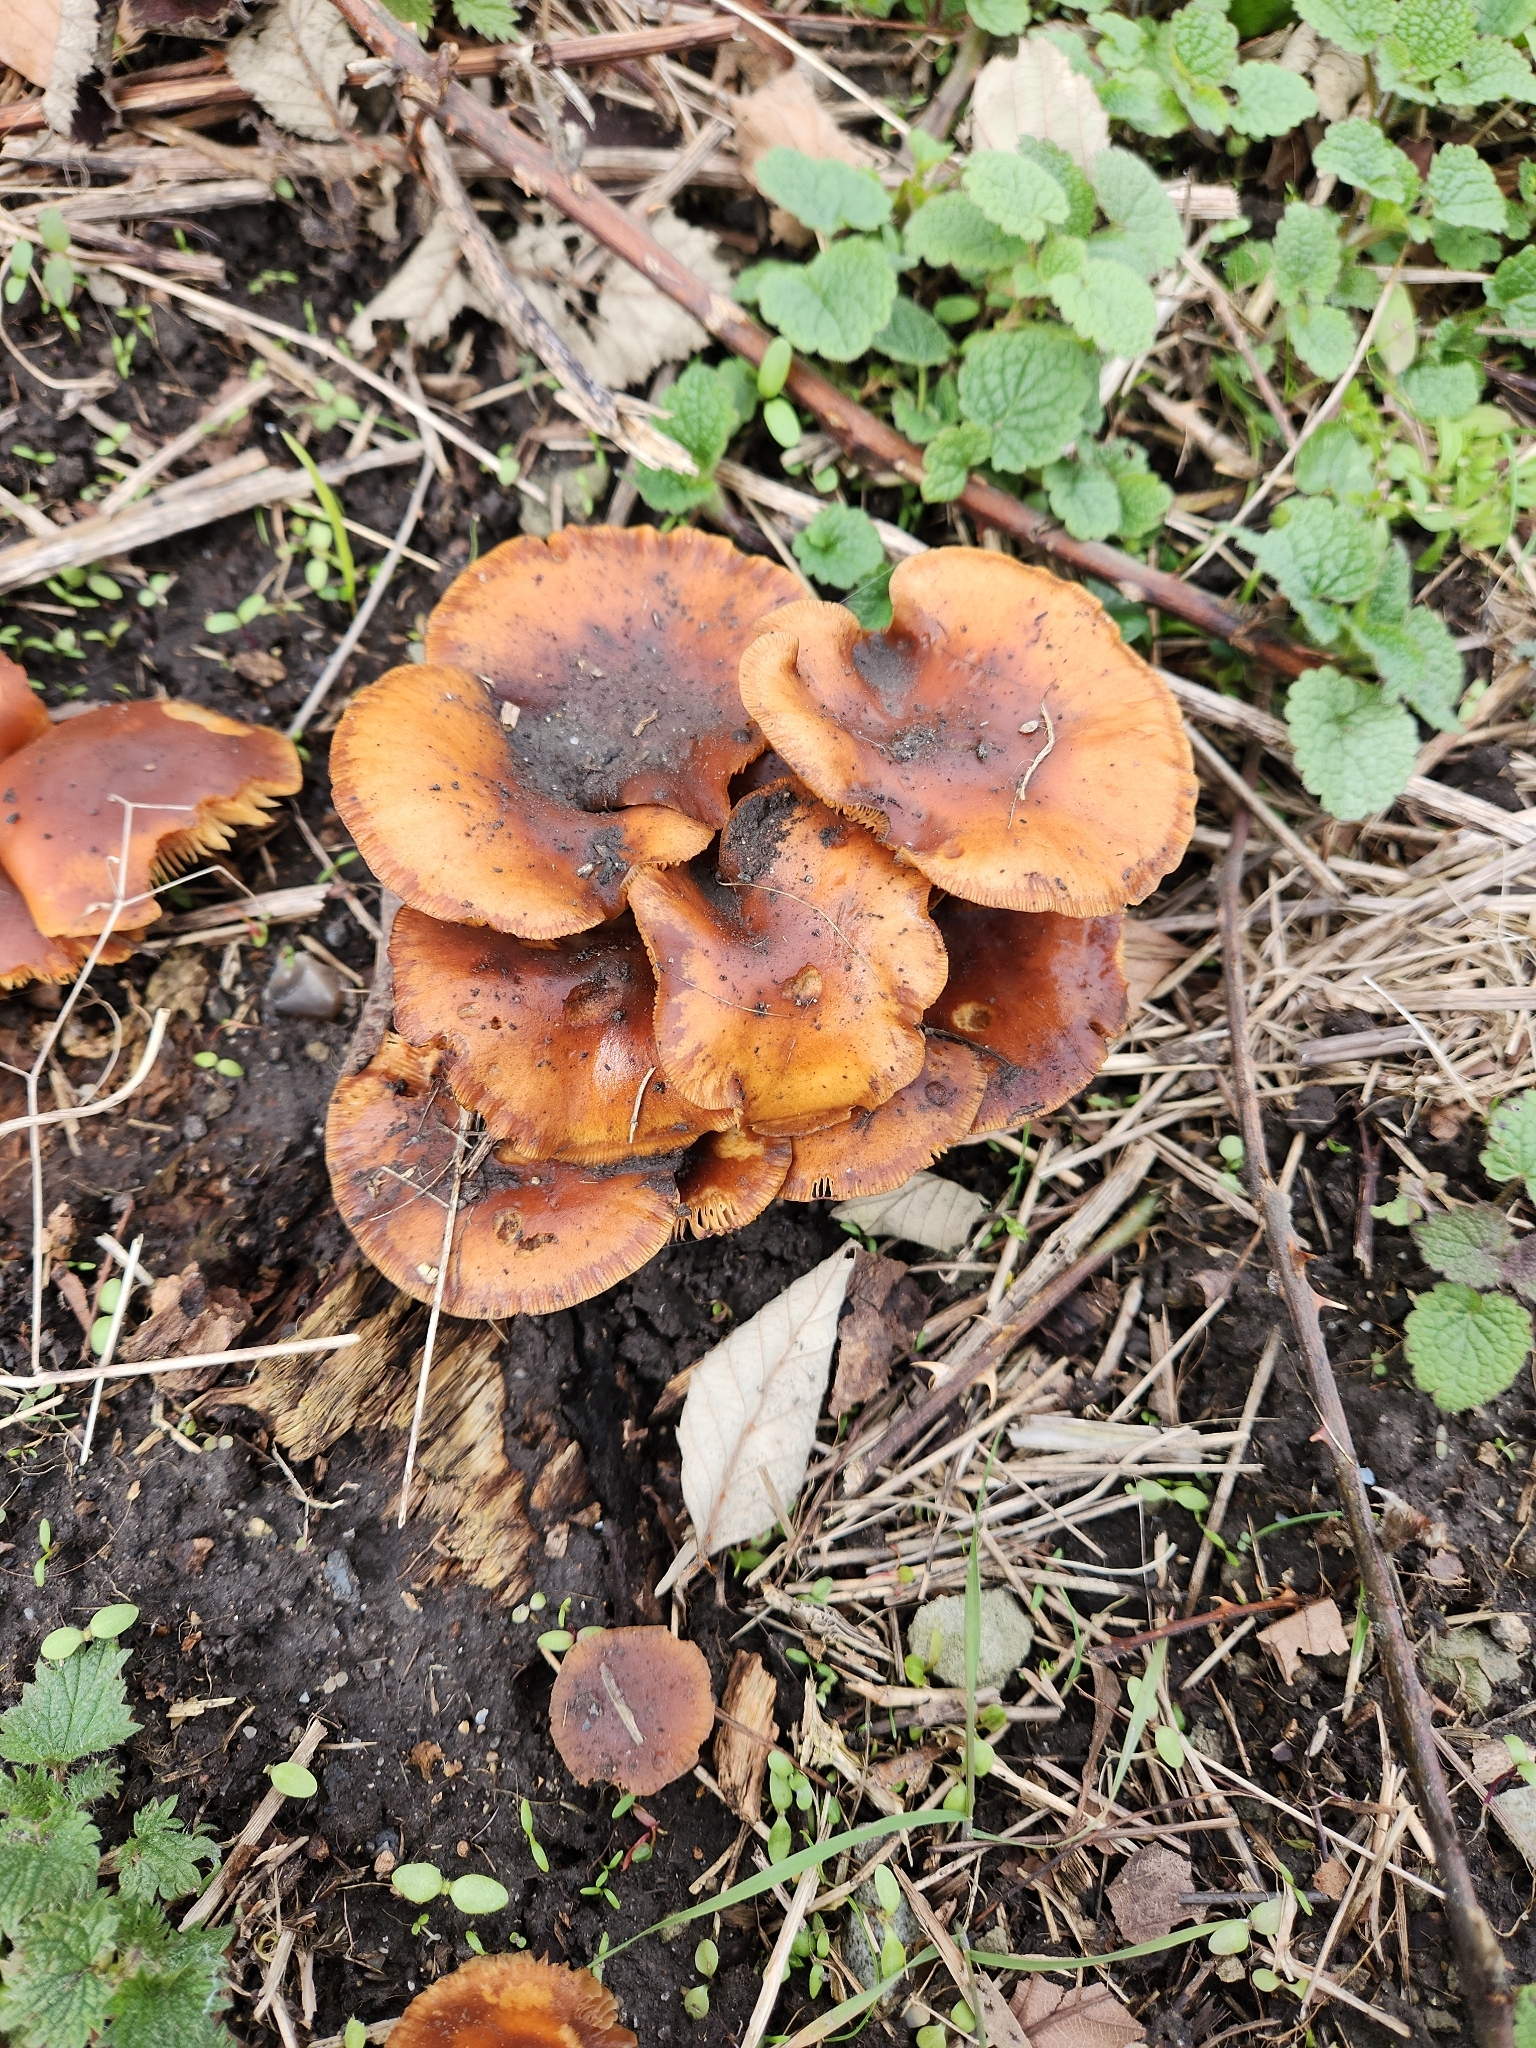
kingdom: Fungi
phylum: Basidiomycota
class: Agaricomycetes
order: Agaricales
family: Physalacriaceae
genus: Flammulina
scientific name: Flammulina
